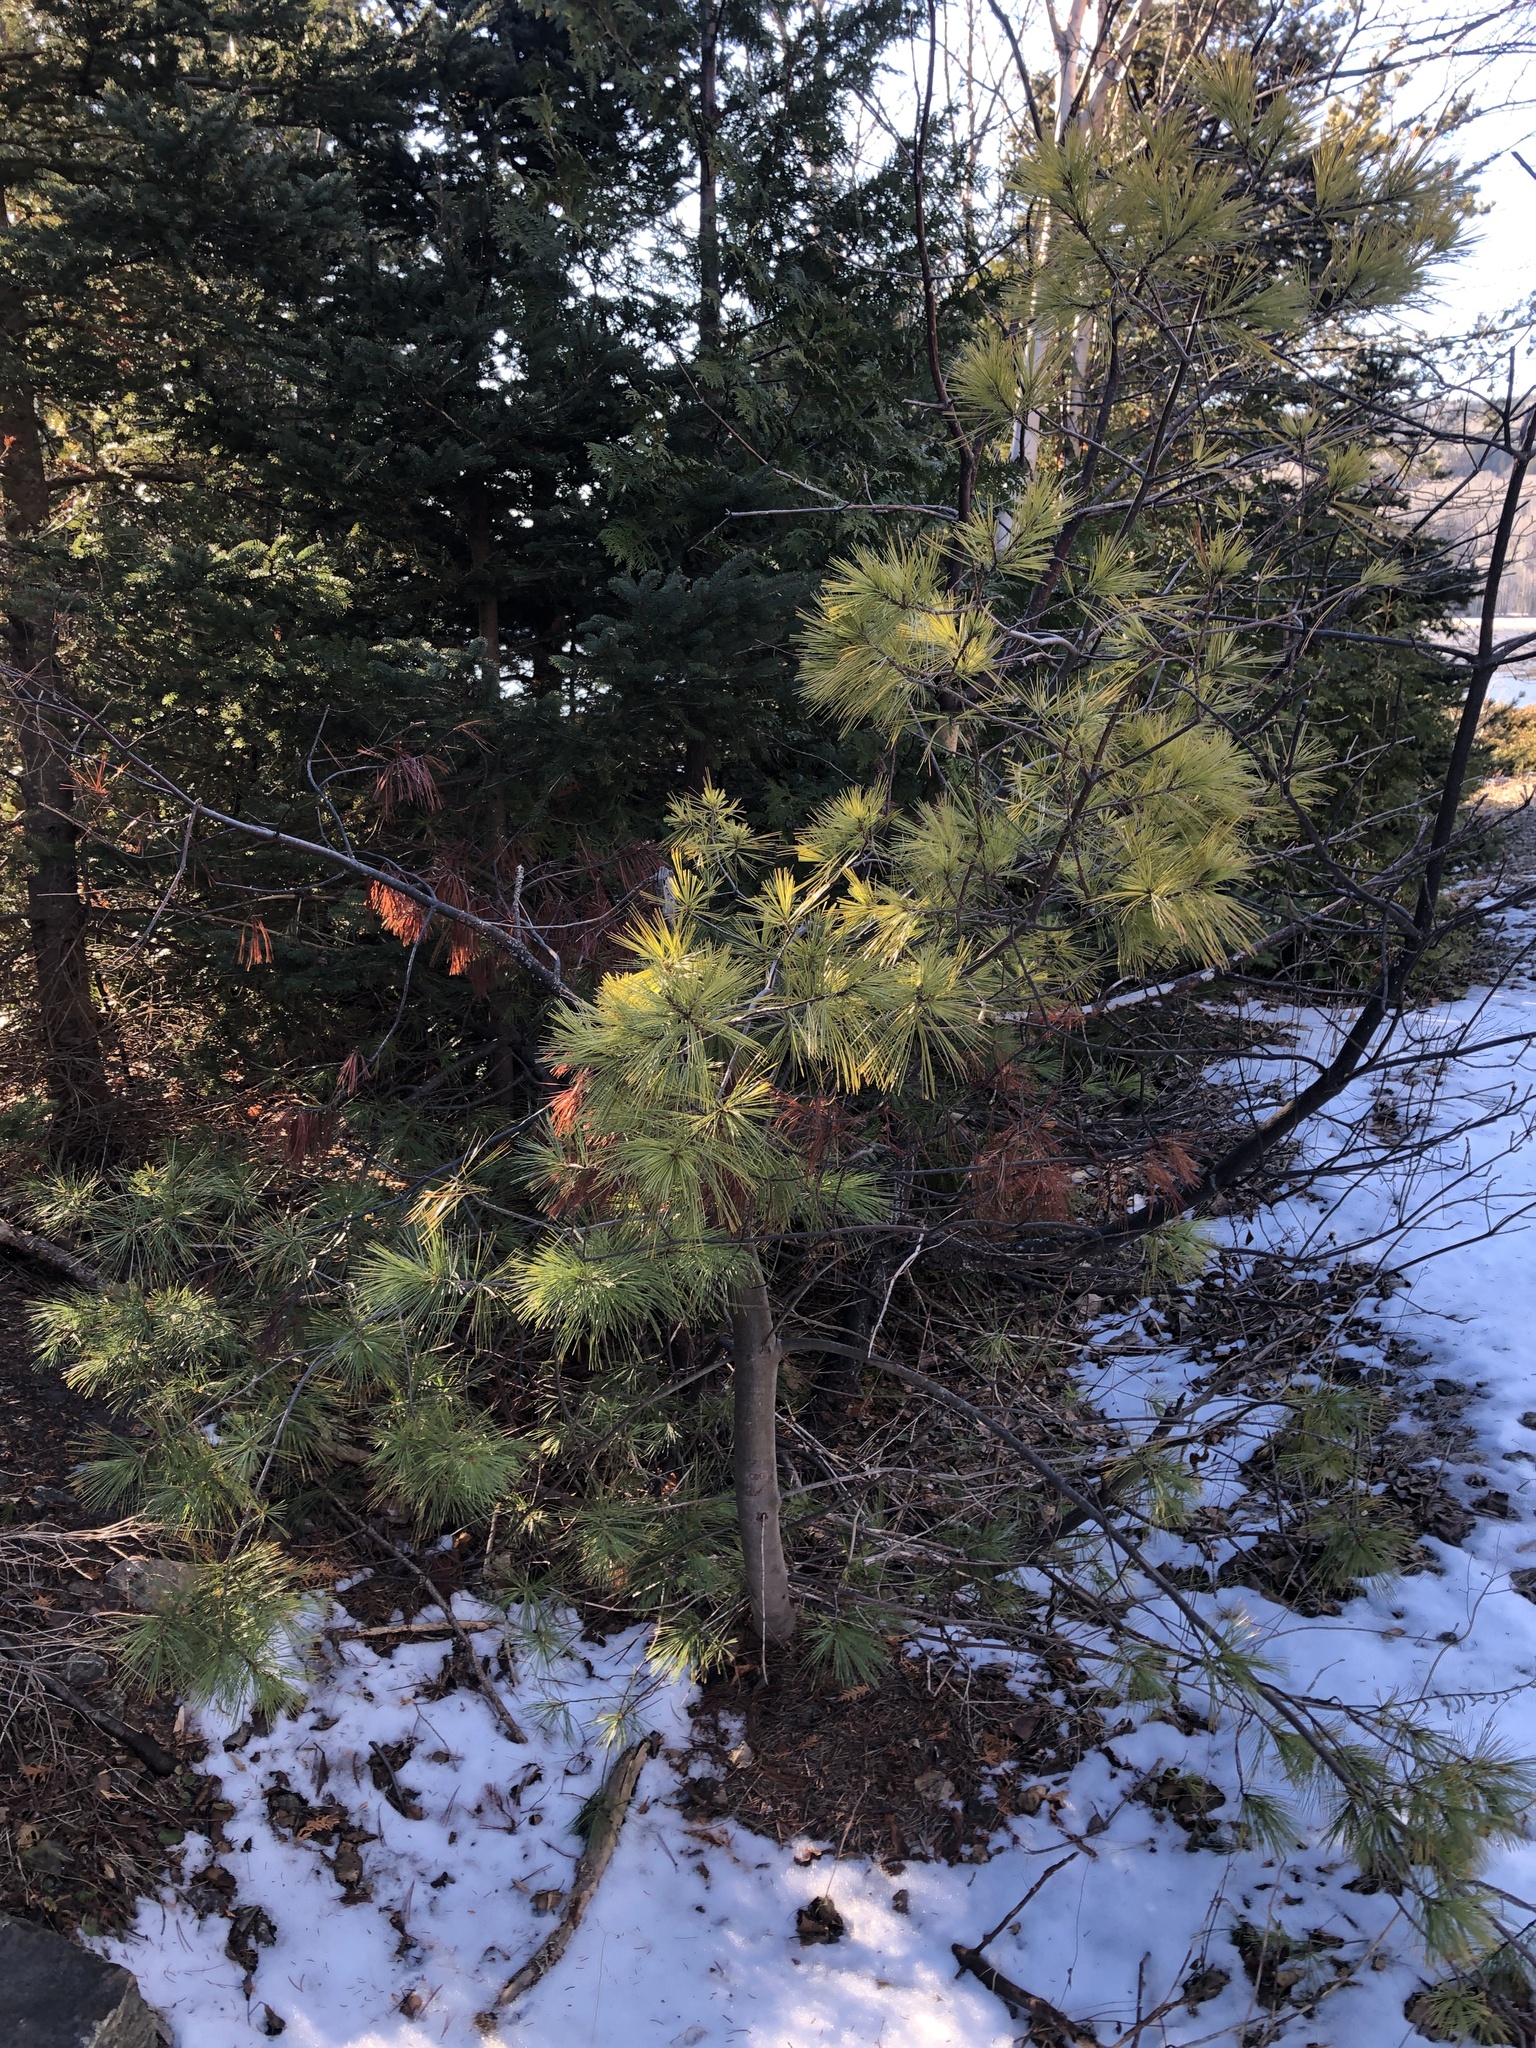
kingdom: Plantae
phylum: Tracheophyta
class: Pinopsida
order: Pinales
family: Pinaceae
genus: Pinus
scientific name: Pinus strobus
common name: Weymouth pine
